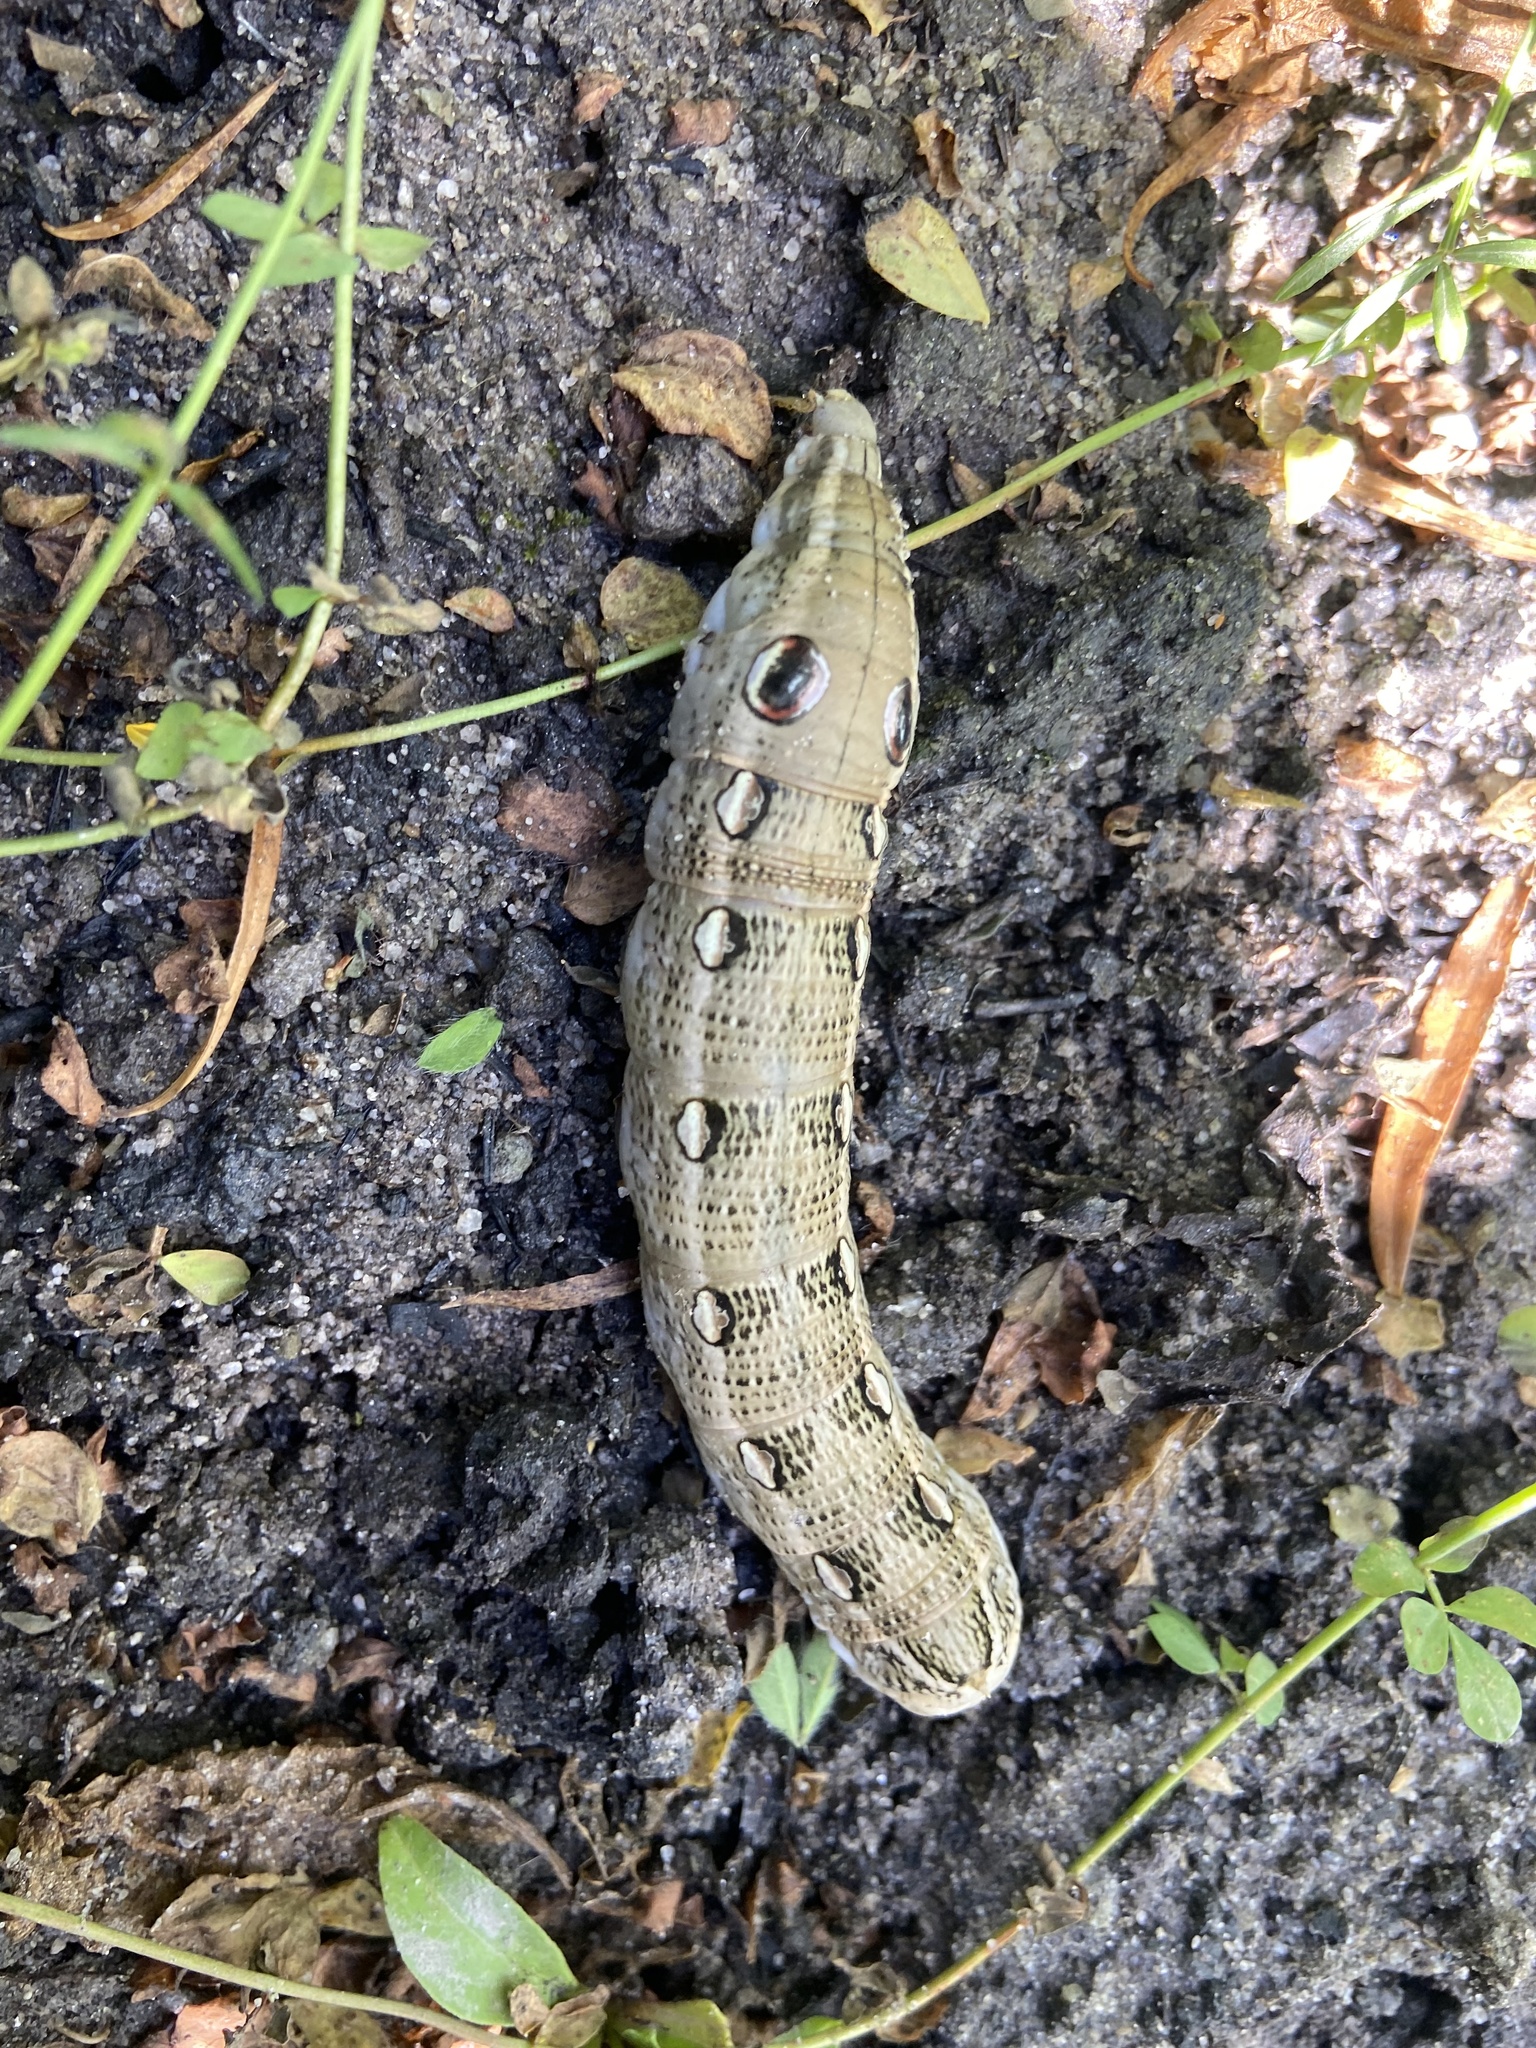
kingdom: Animalia
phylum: Arthropoda
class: Insecta
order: Lepidoptera
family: Sphingidae
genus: Theretra
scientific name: Theretra cajus
